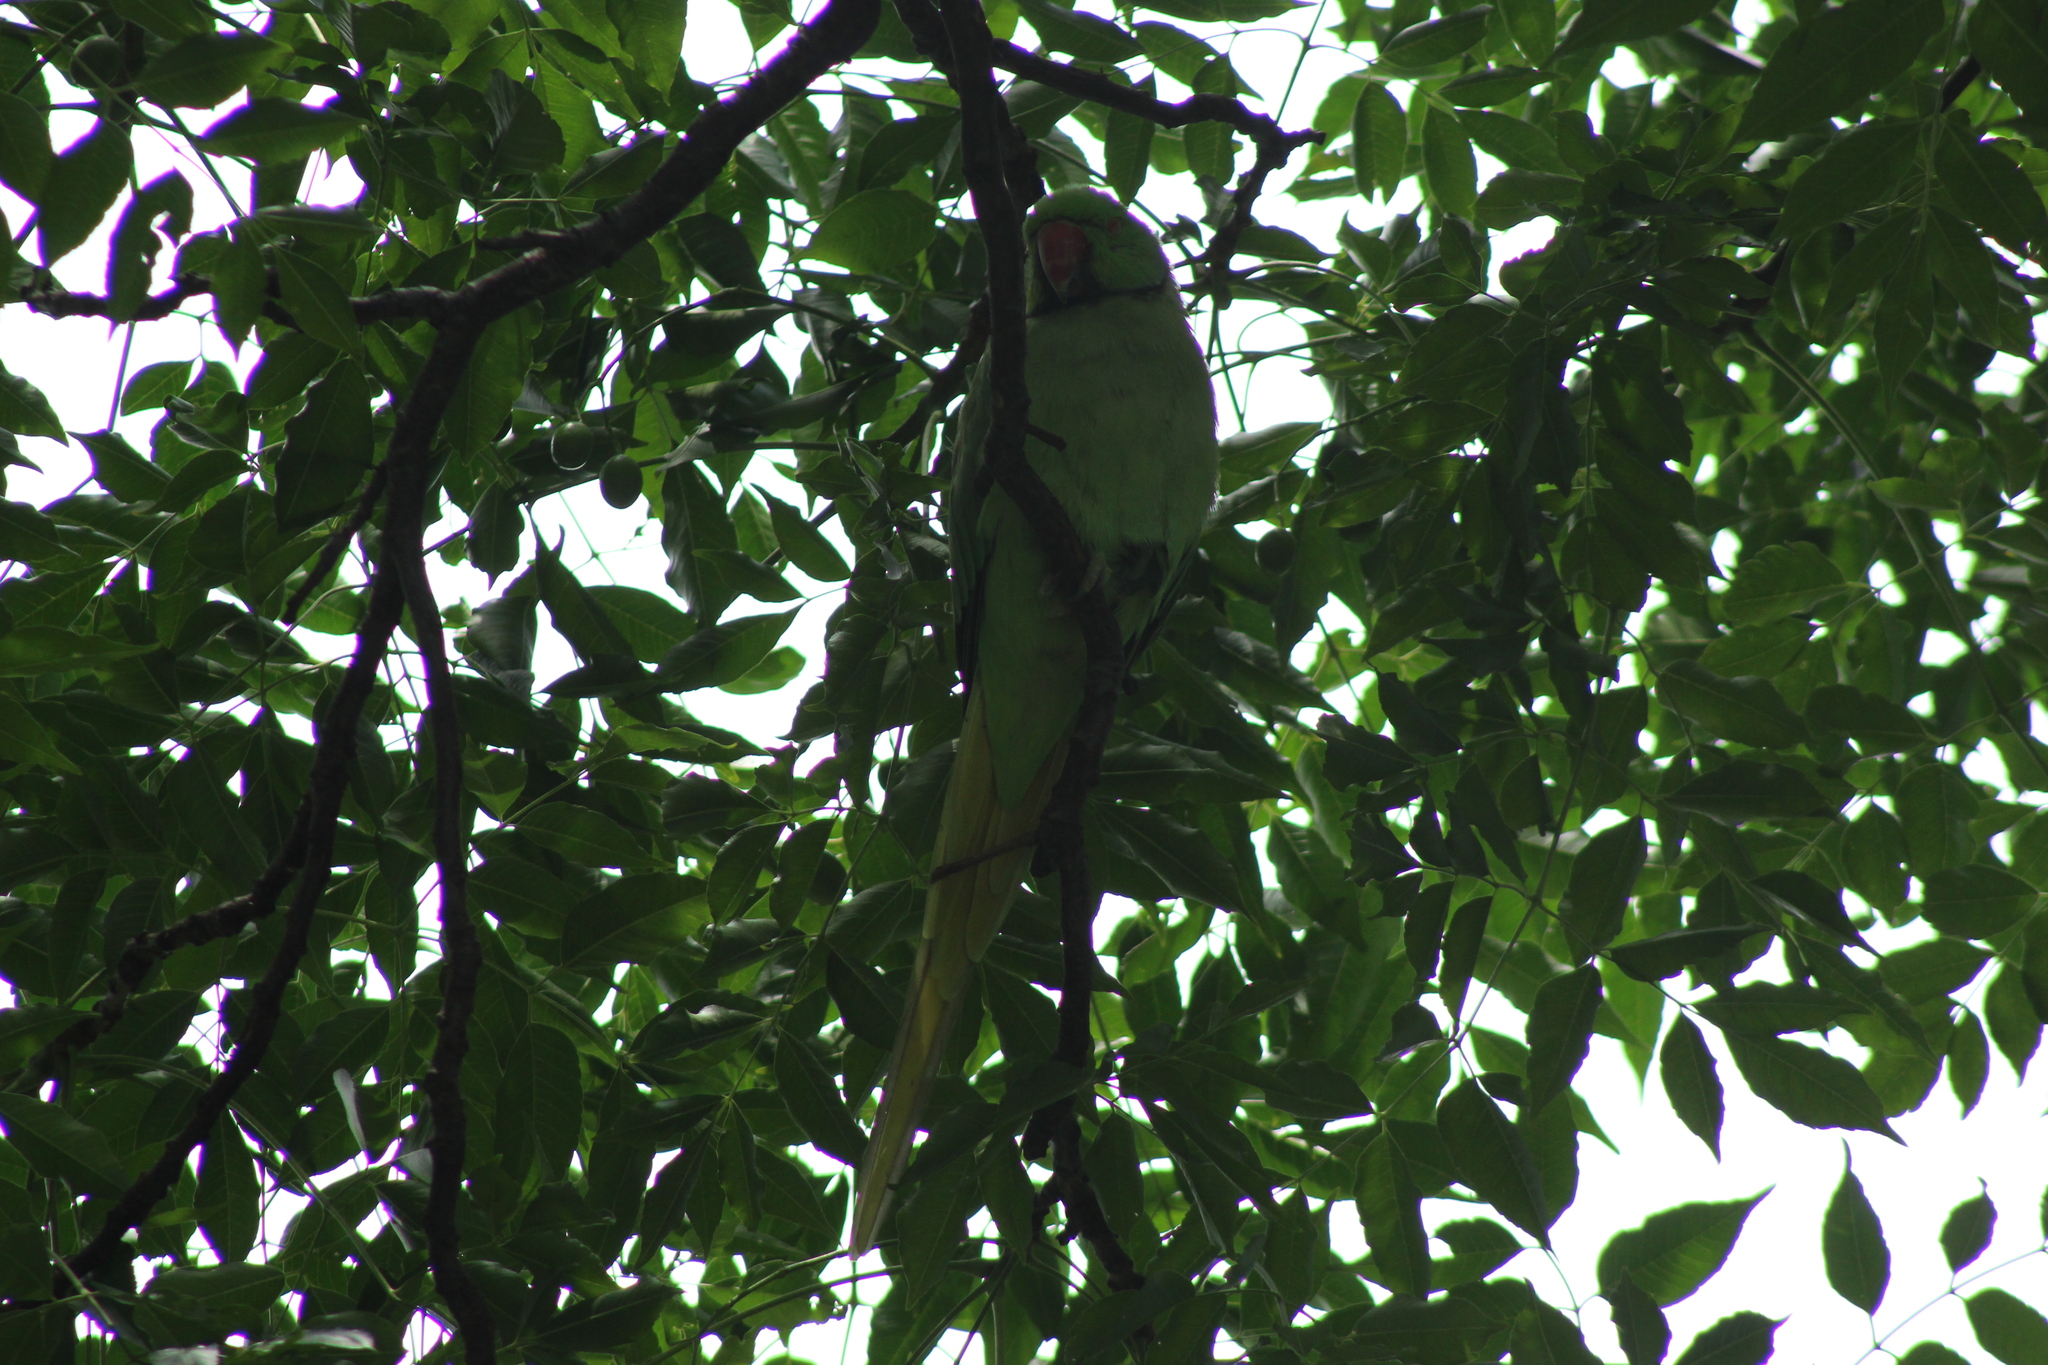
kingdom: Animalia
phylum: Chordata
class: Aves
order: Psittaciformes
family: Psittacidae
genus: Psittacula
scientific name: Psittacula krameri
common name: Rose-ringed parakeet
